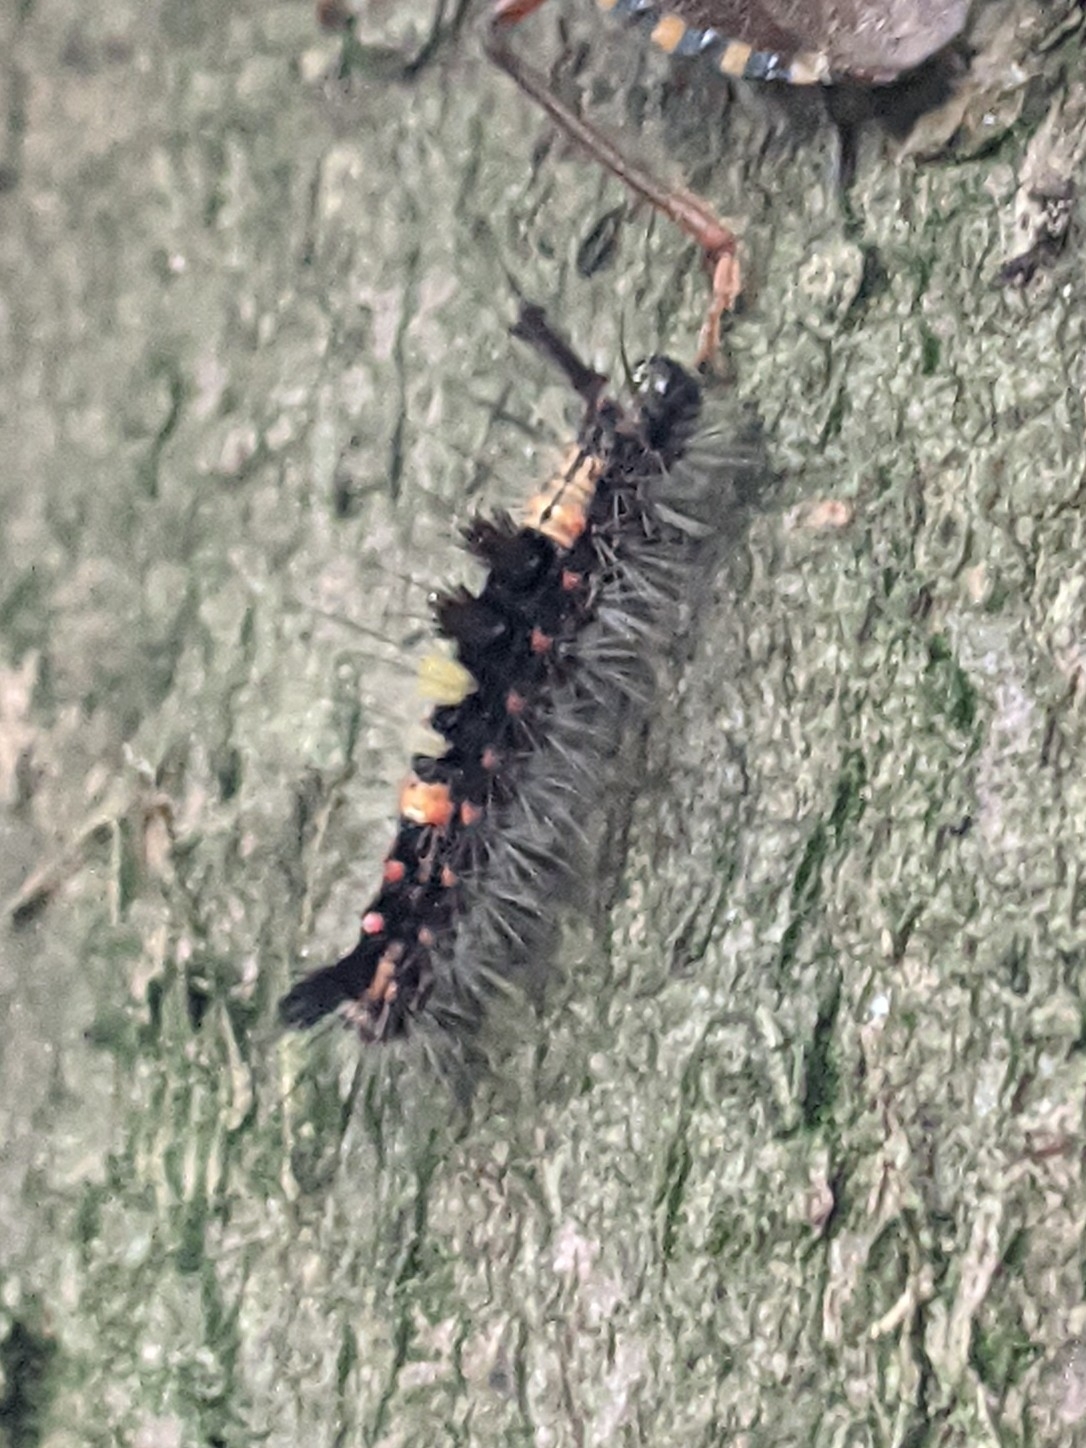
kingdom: Animalia
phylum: Arthropoda
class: Insecta
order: Lepidoptera
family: Erebidae
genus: Orgyia
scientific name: Orgyia antiqua
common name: Vapourer
